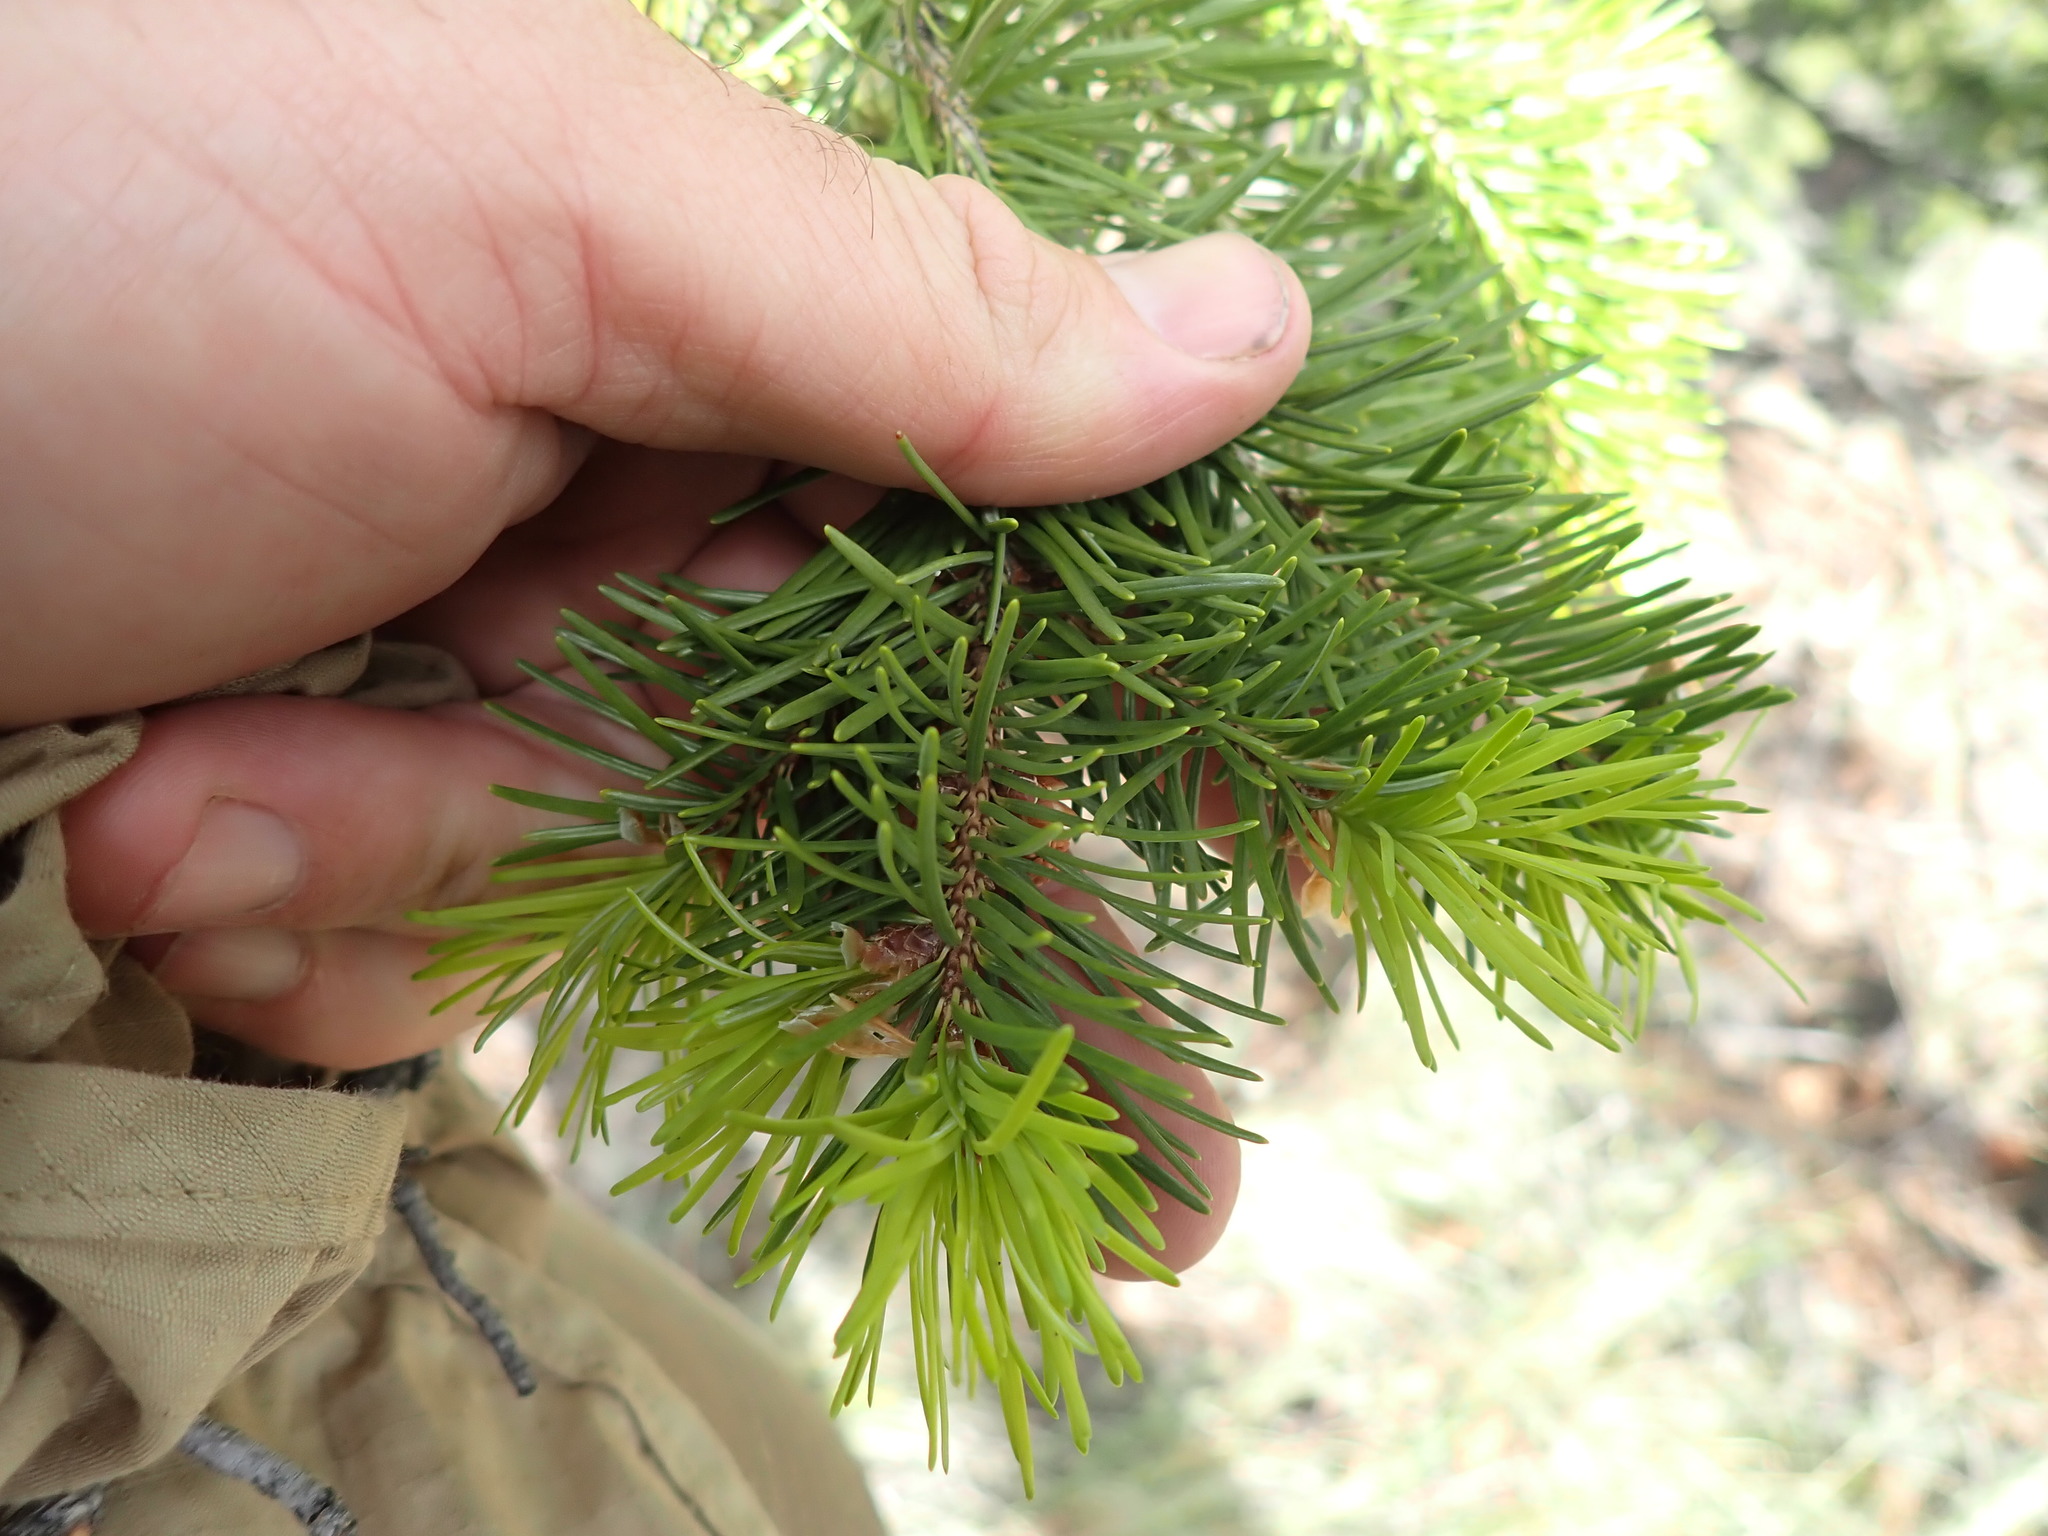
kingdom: Plantae
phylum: Tracheophyta
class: Pinopsida
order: Pinales
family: Pinaceae
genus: Pseudotsuga
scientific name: Pseudotsuga menziesii
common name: Douglas fir
